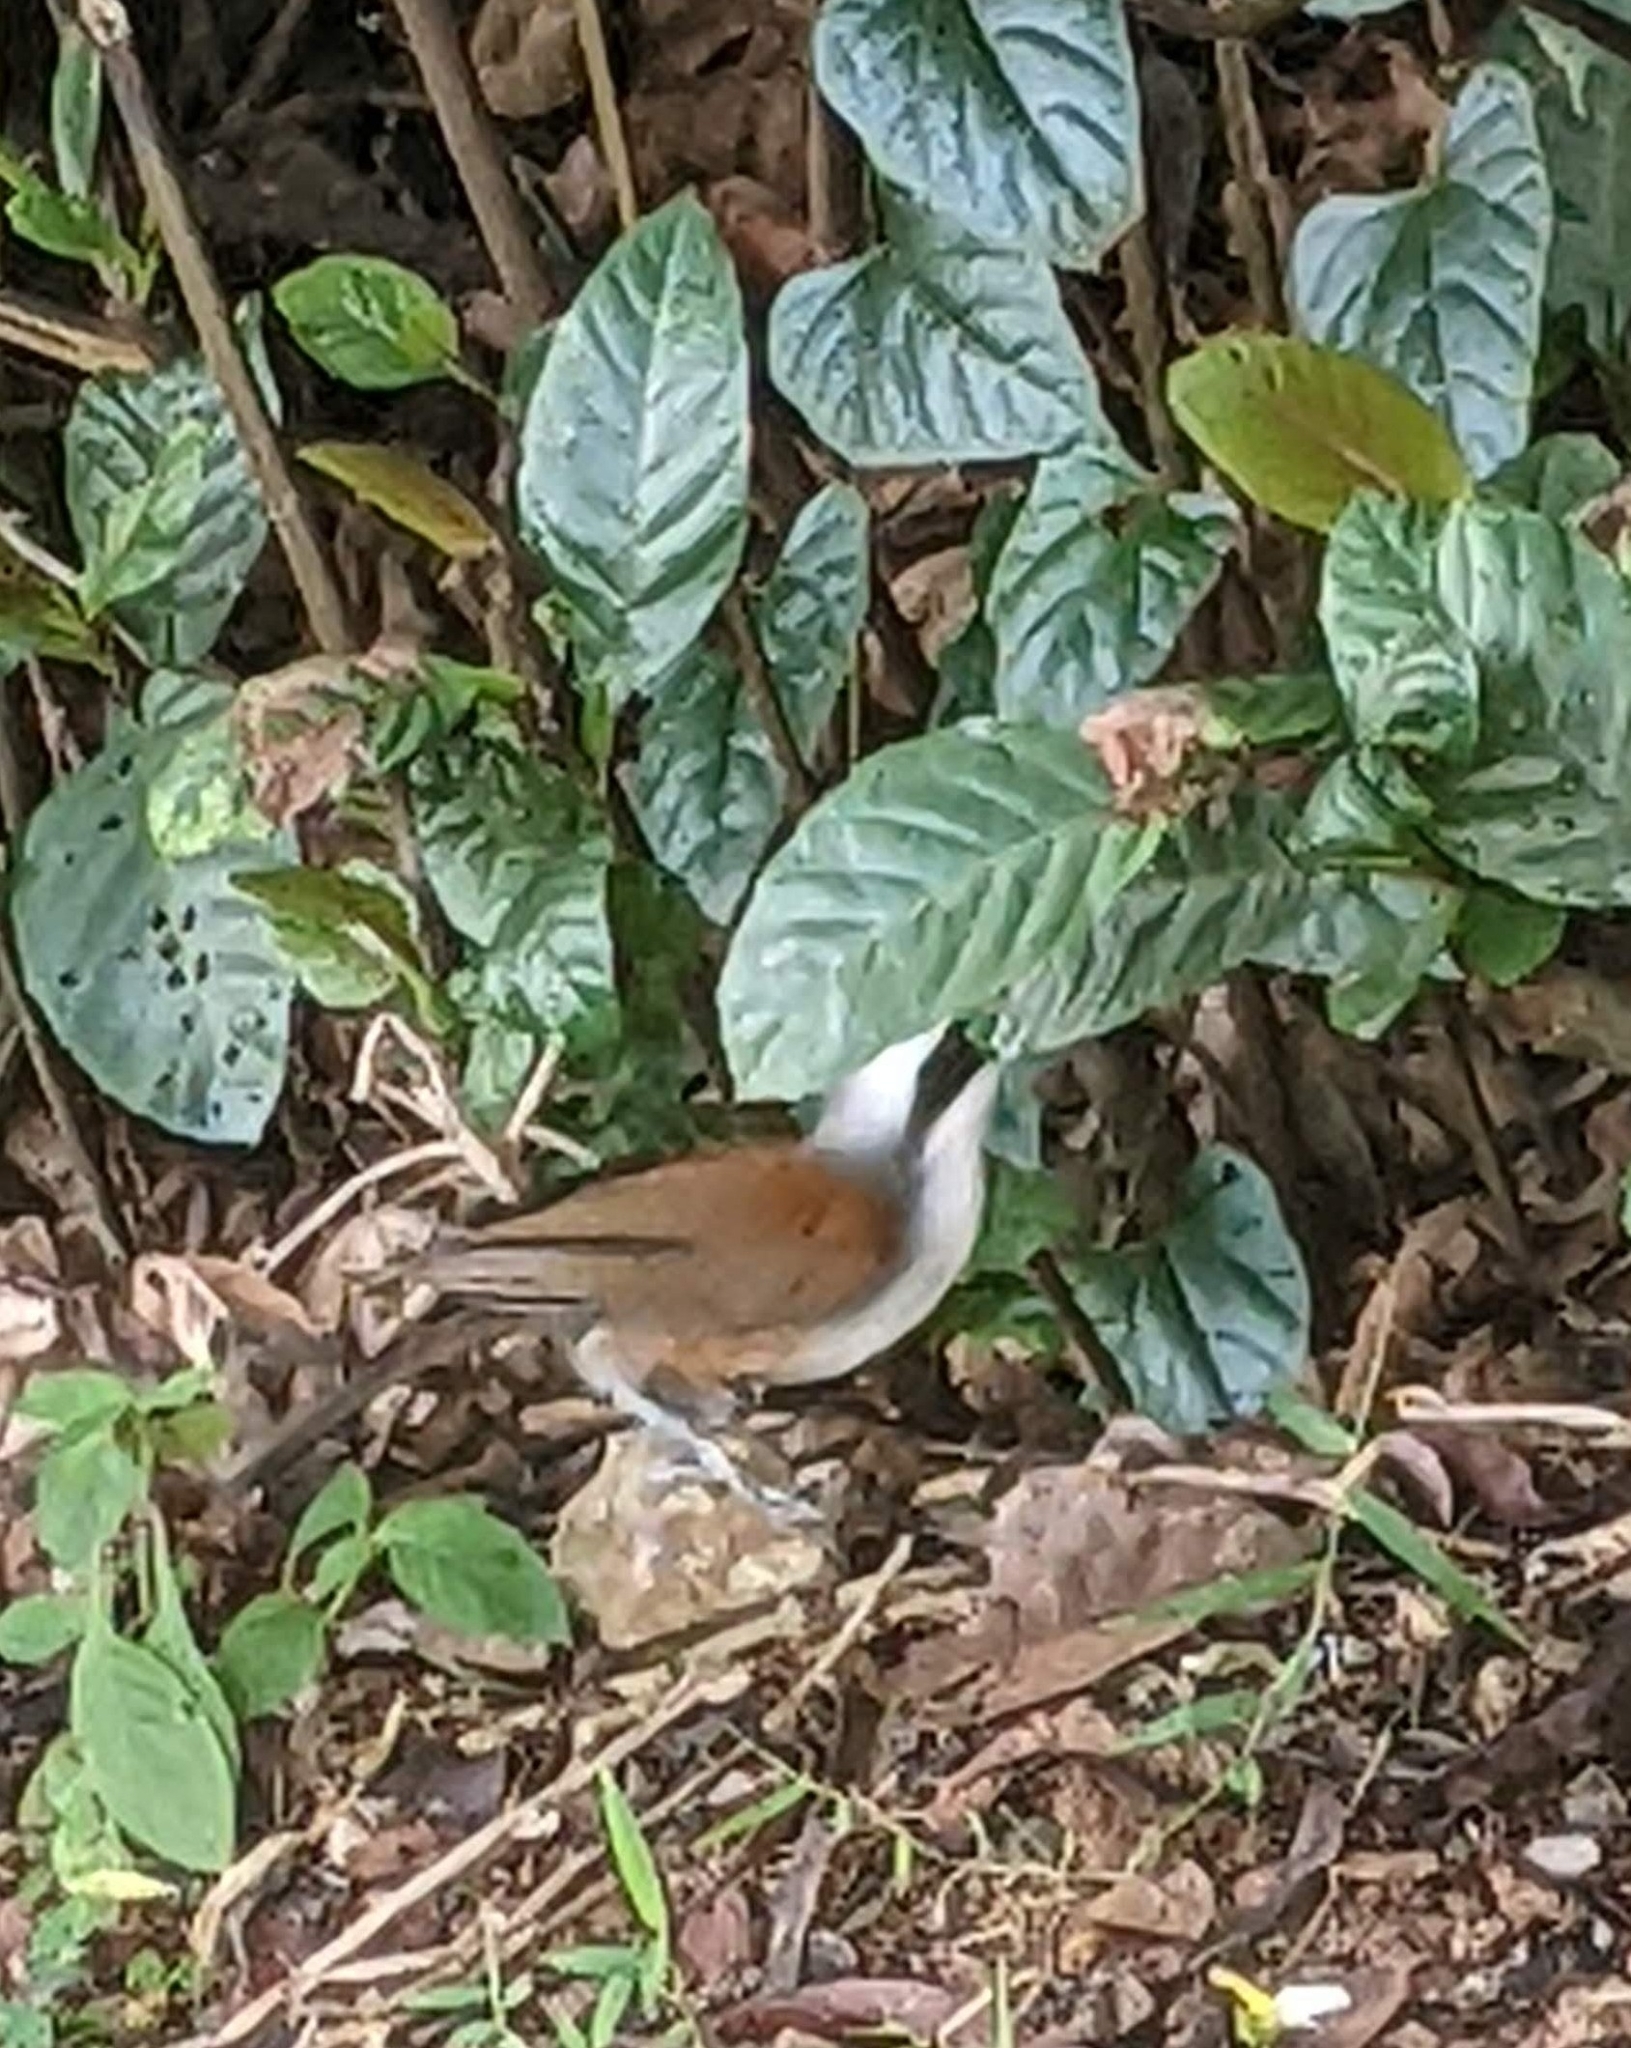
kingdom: Animalia
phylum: Chordata
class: Aves
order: Passeriformes
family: Leiothrichidae
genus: Garrulax
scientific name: Garrulax leucolophus
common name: White-crested laughingthrush
